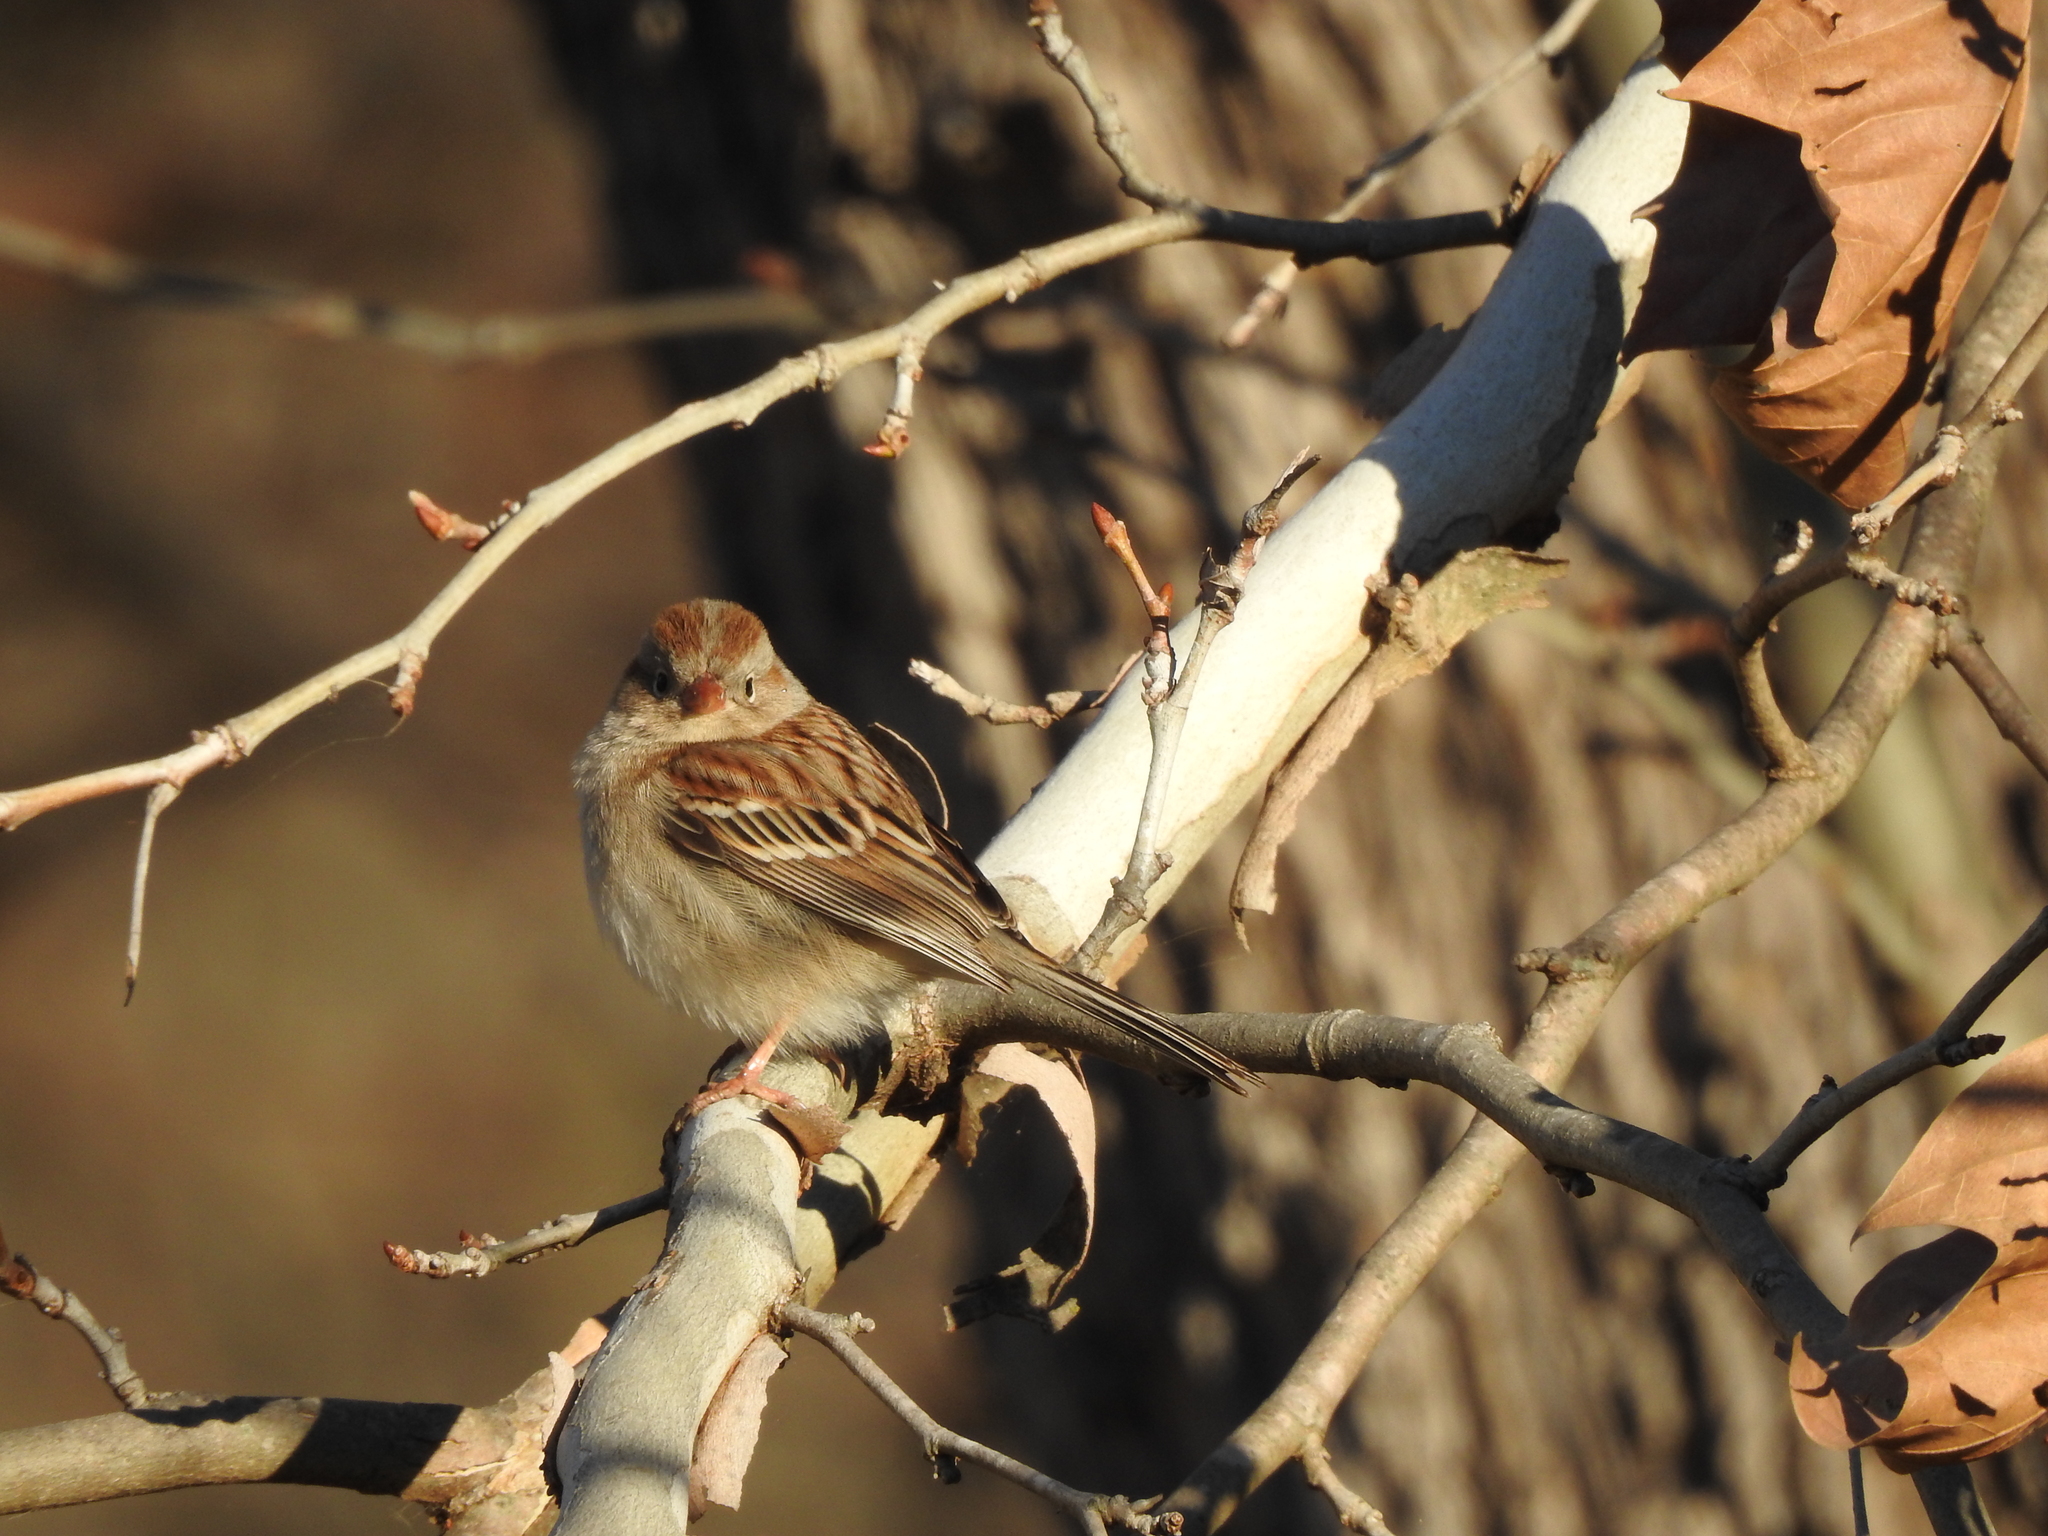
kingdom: Animalia
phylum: Chordata
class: Aves
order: Passeriformes
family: Passerellidae
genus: Spizella
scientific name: Spizella pusilla
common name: Field sparrow
